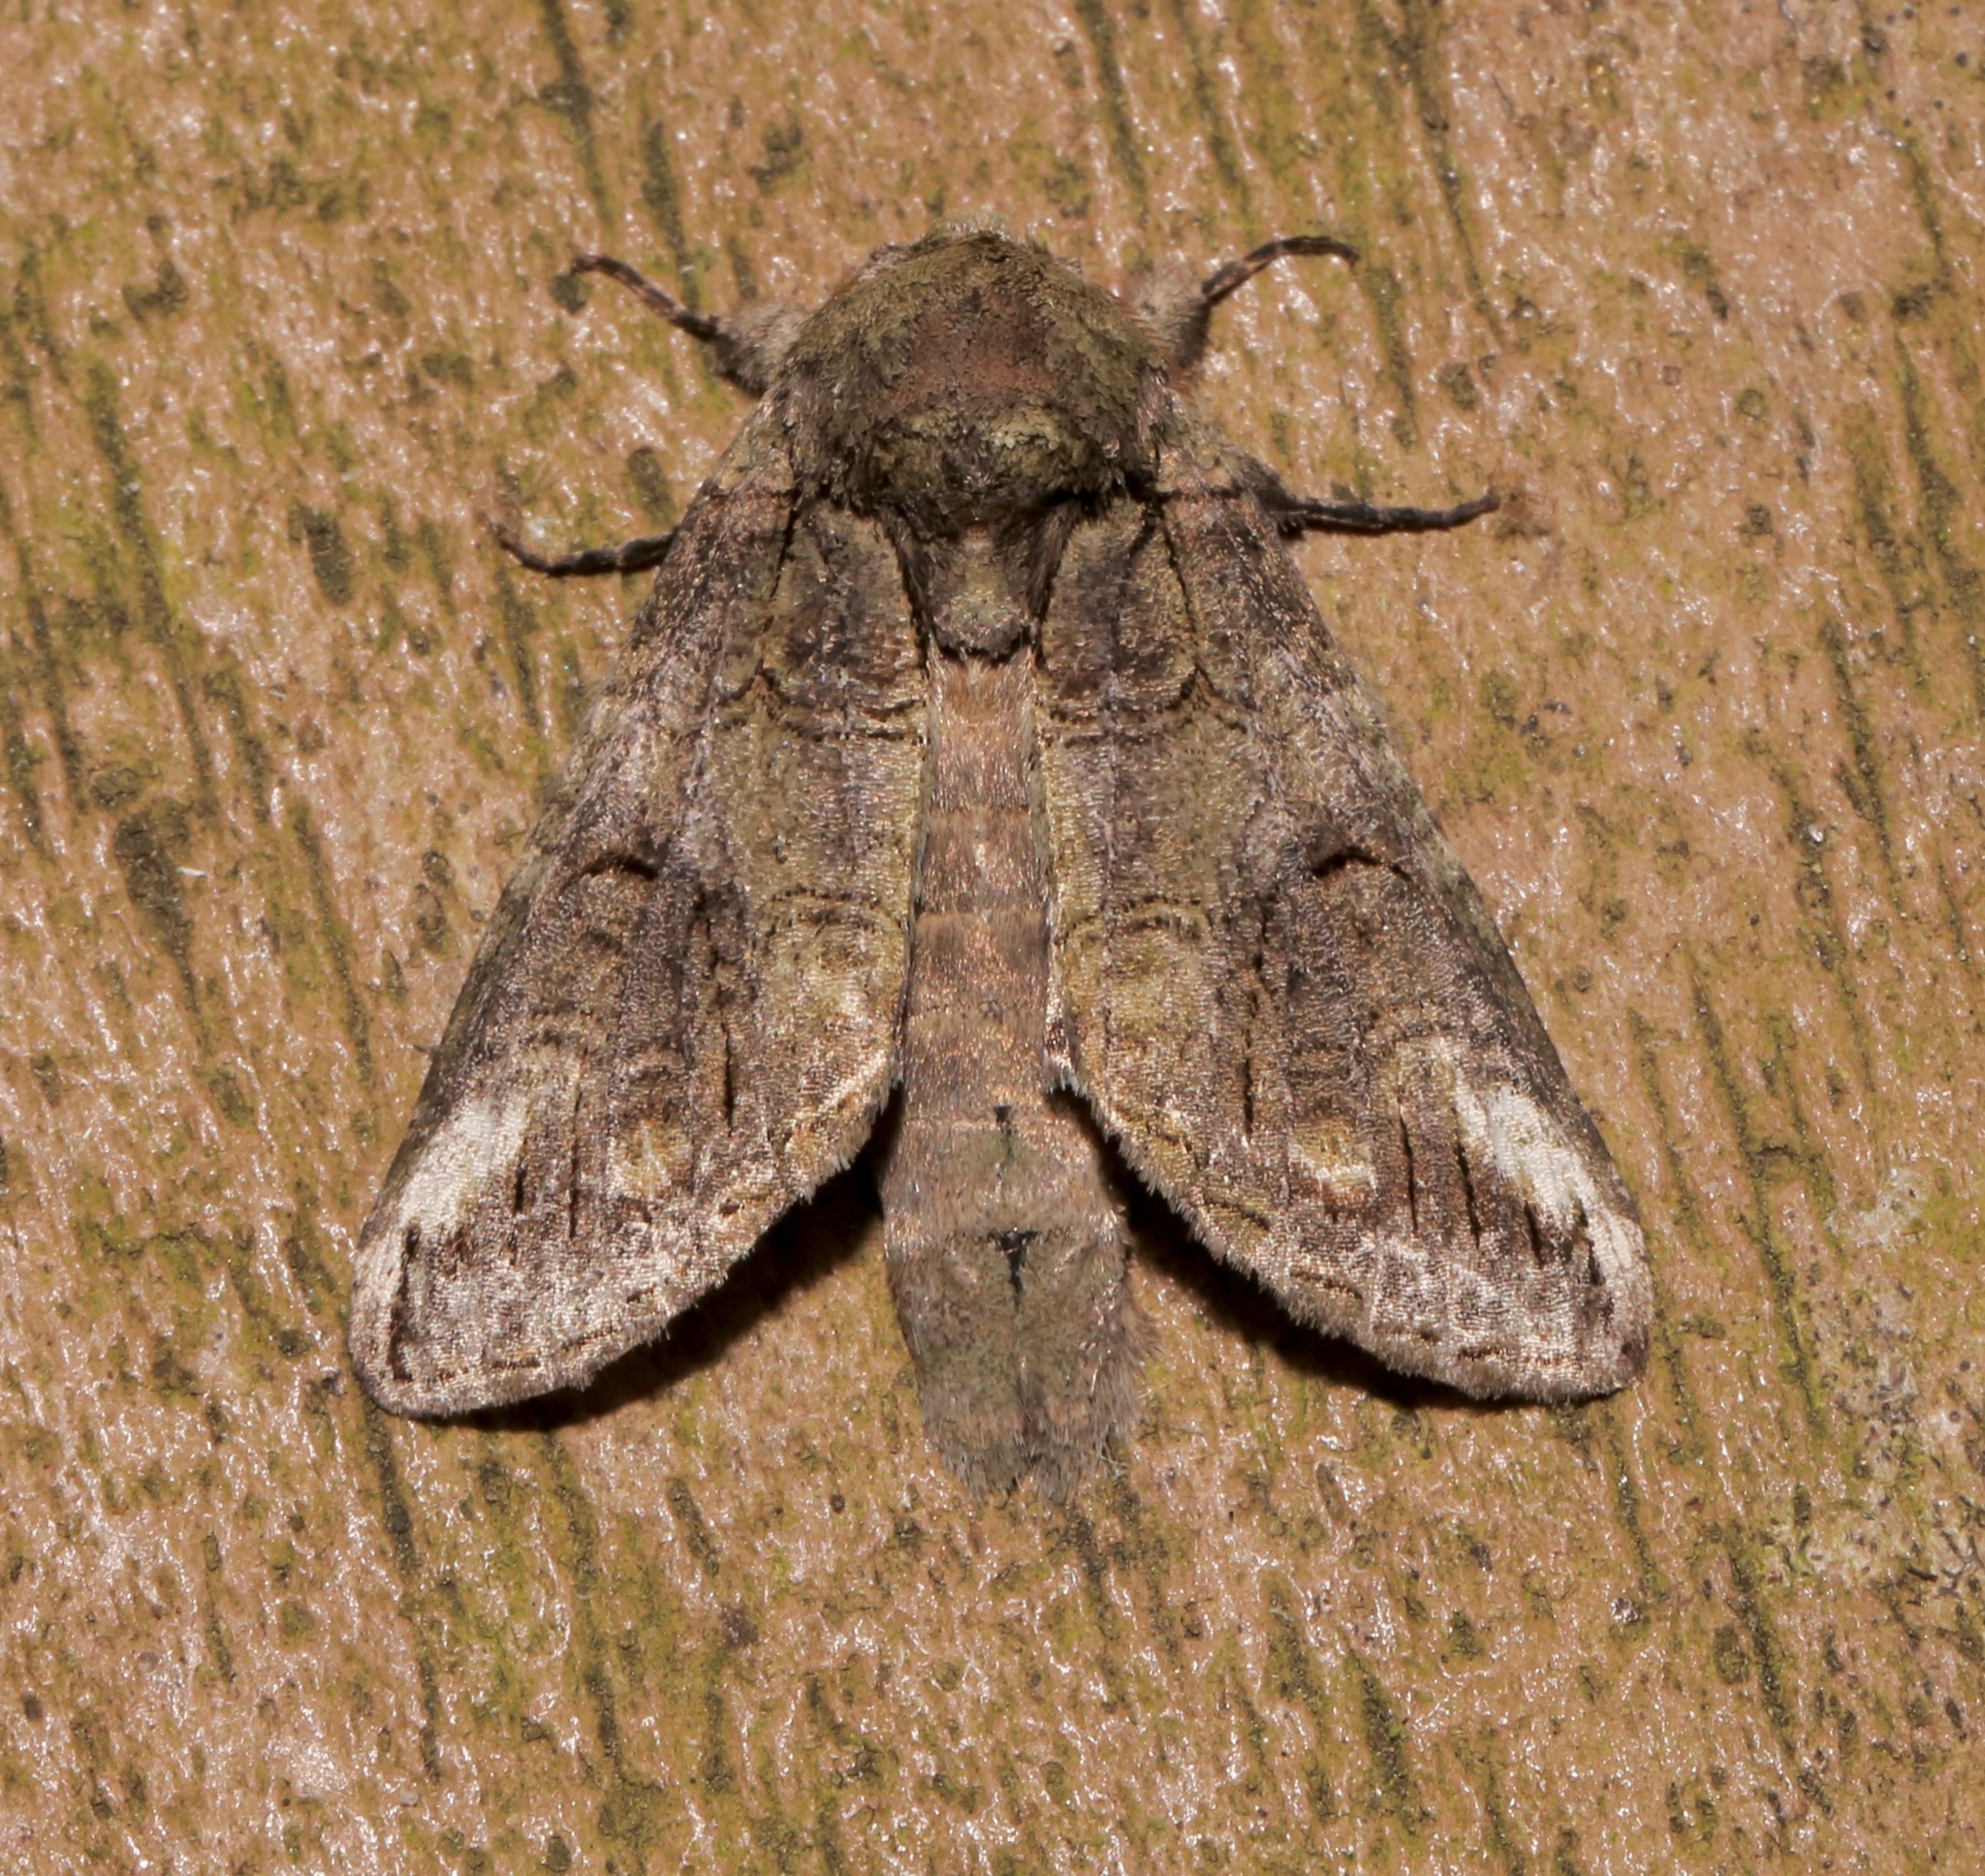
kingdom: Animalia
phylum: Arthropoda
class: Insecta
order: Lepidoptera
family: Notodontidae
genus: Heterocampa
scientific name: Heterocampa obliqua
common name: Oblique heterocampa
